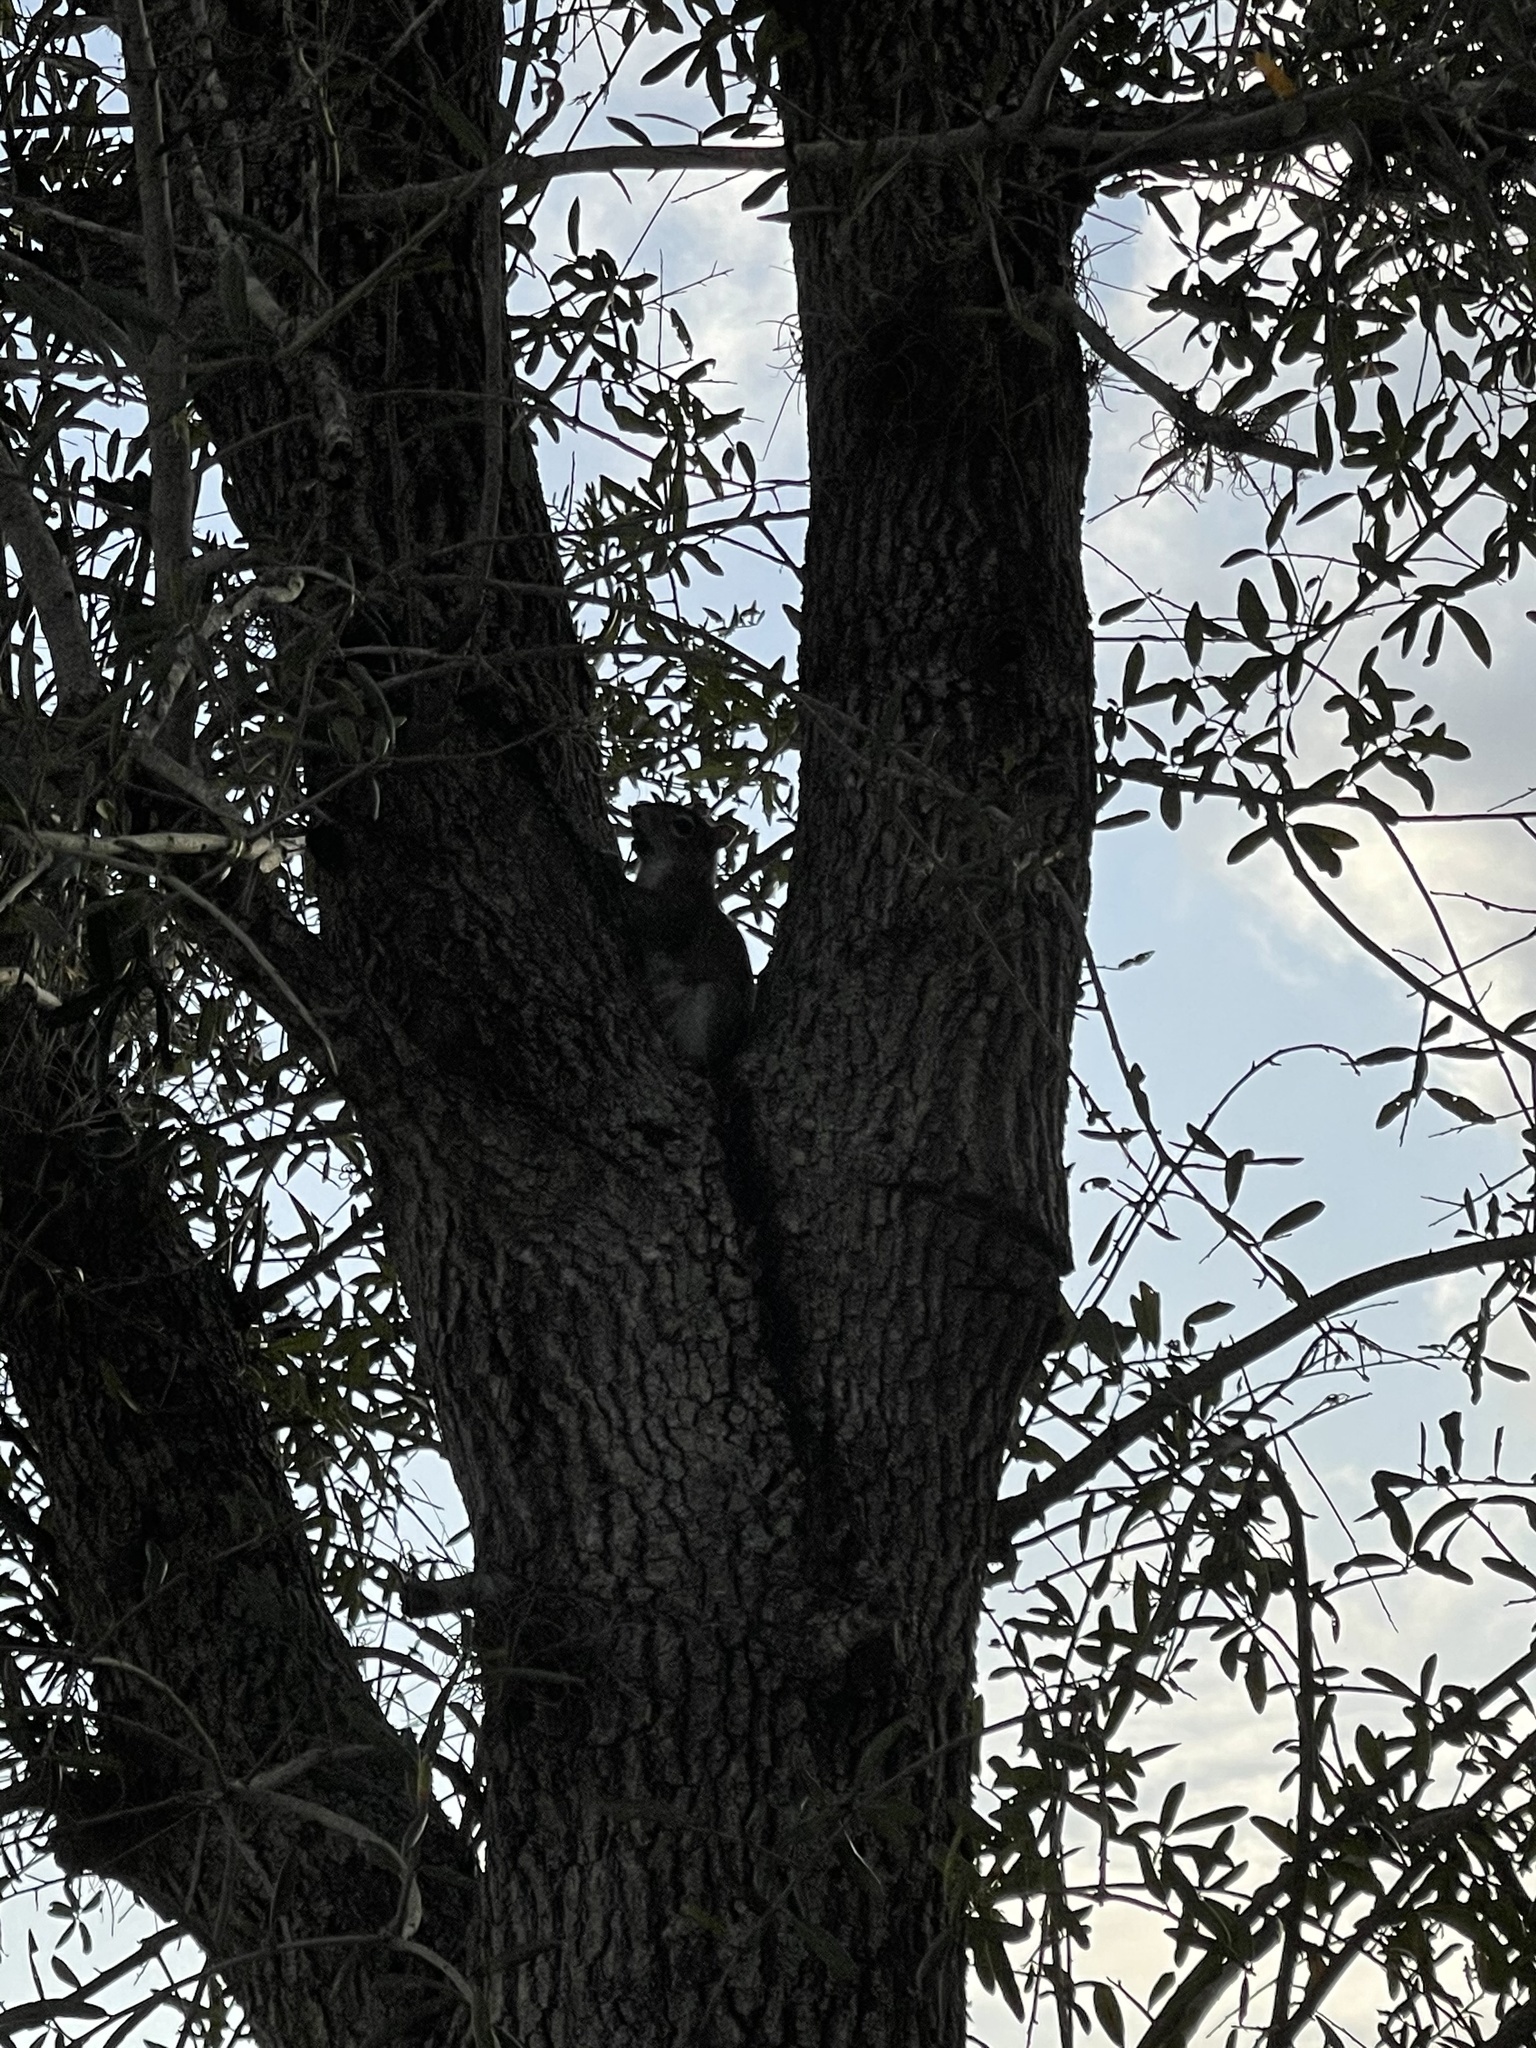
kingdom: Animalia
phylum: Chordata
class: Mammalia
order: Rodentia
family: Sciuridae
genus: Sciurus
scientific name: Sciurus carolinensis
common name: Eastern gray squirrel
